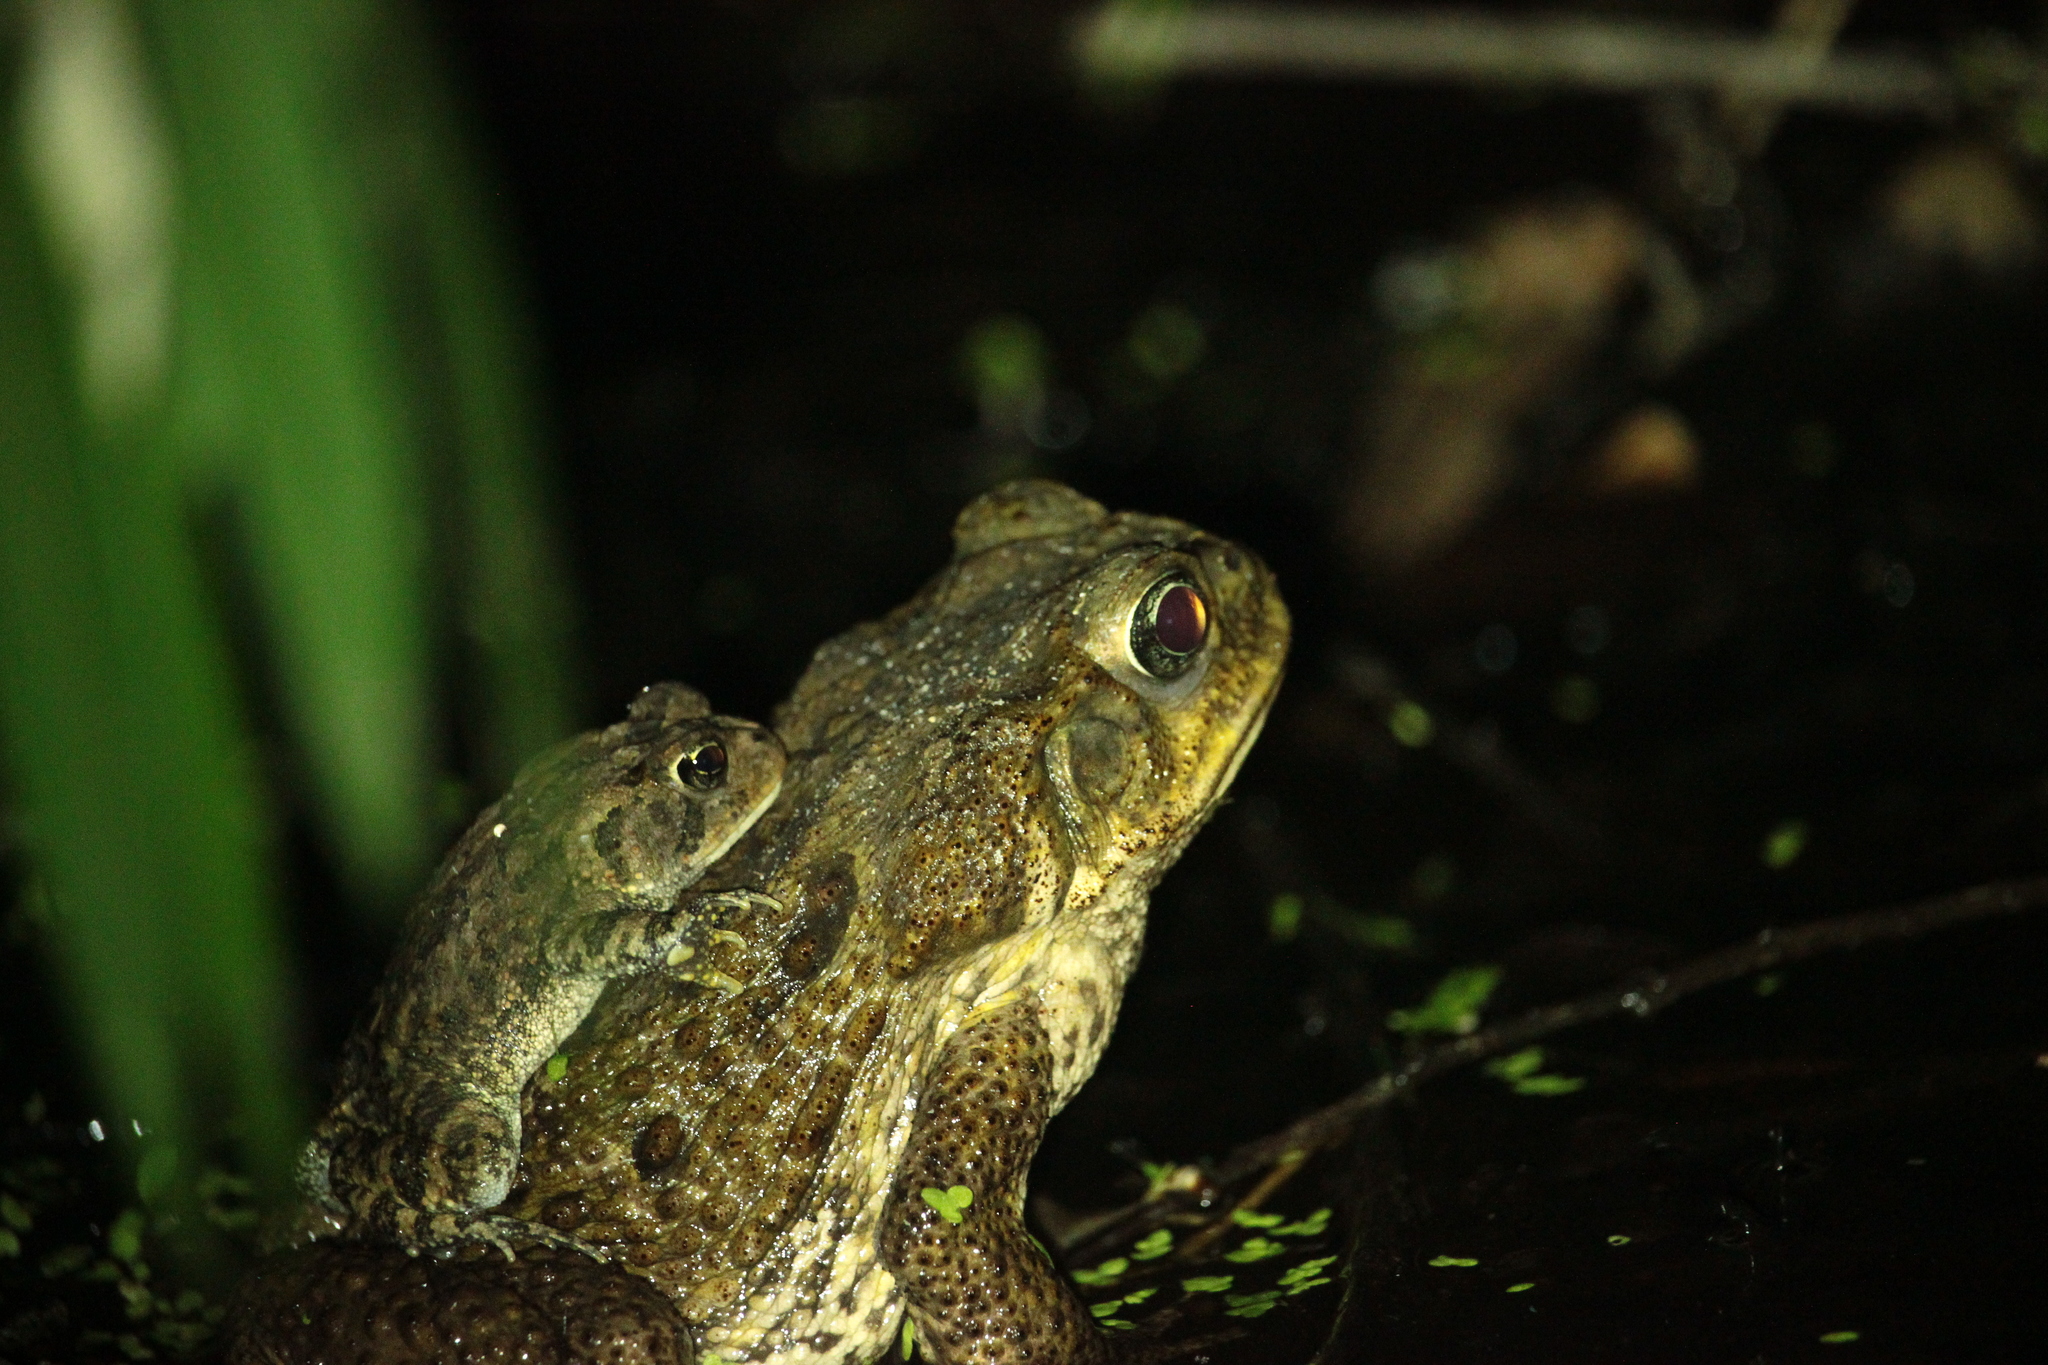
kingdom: Animalia
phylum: Chordata
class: Amphibia
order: Anura
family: Bufonidae
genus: Anaxyrus
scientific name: Anaxyrus terrestris
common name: Southern toad
